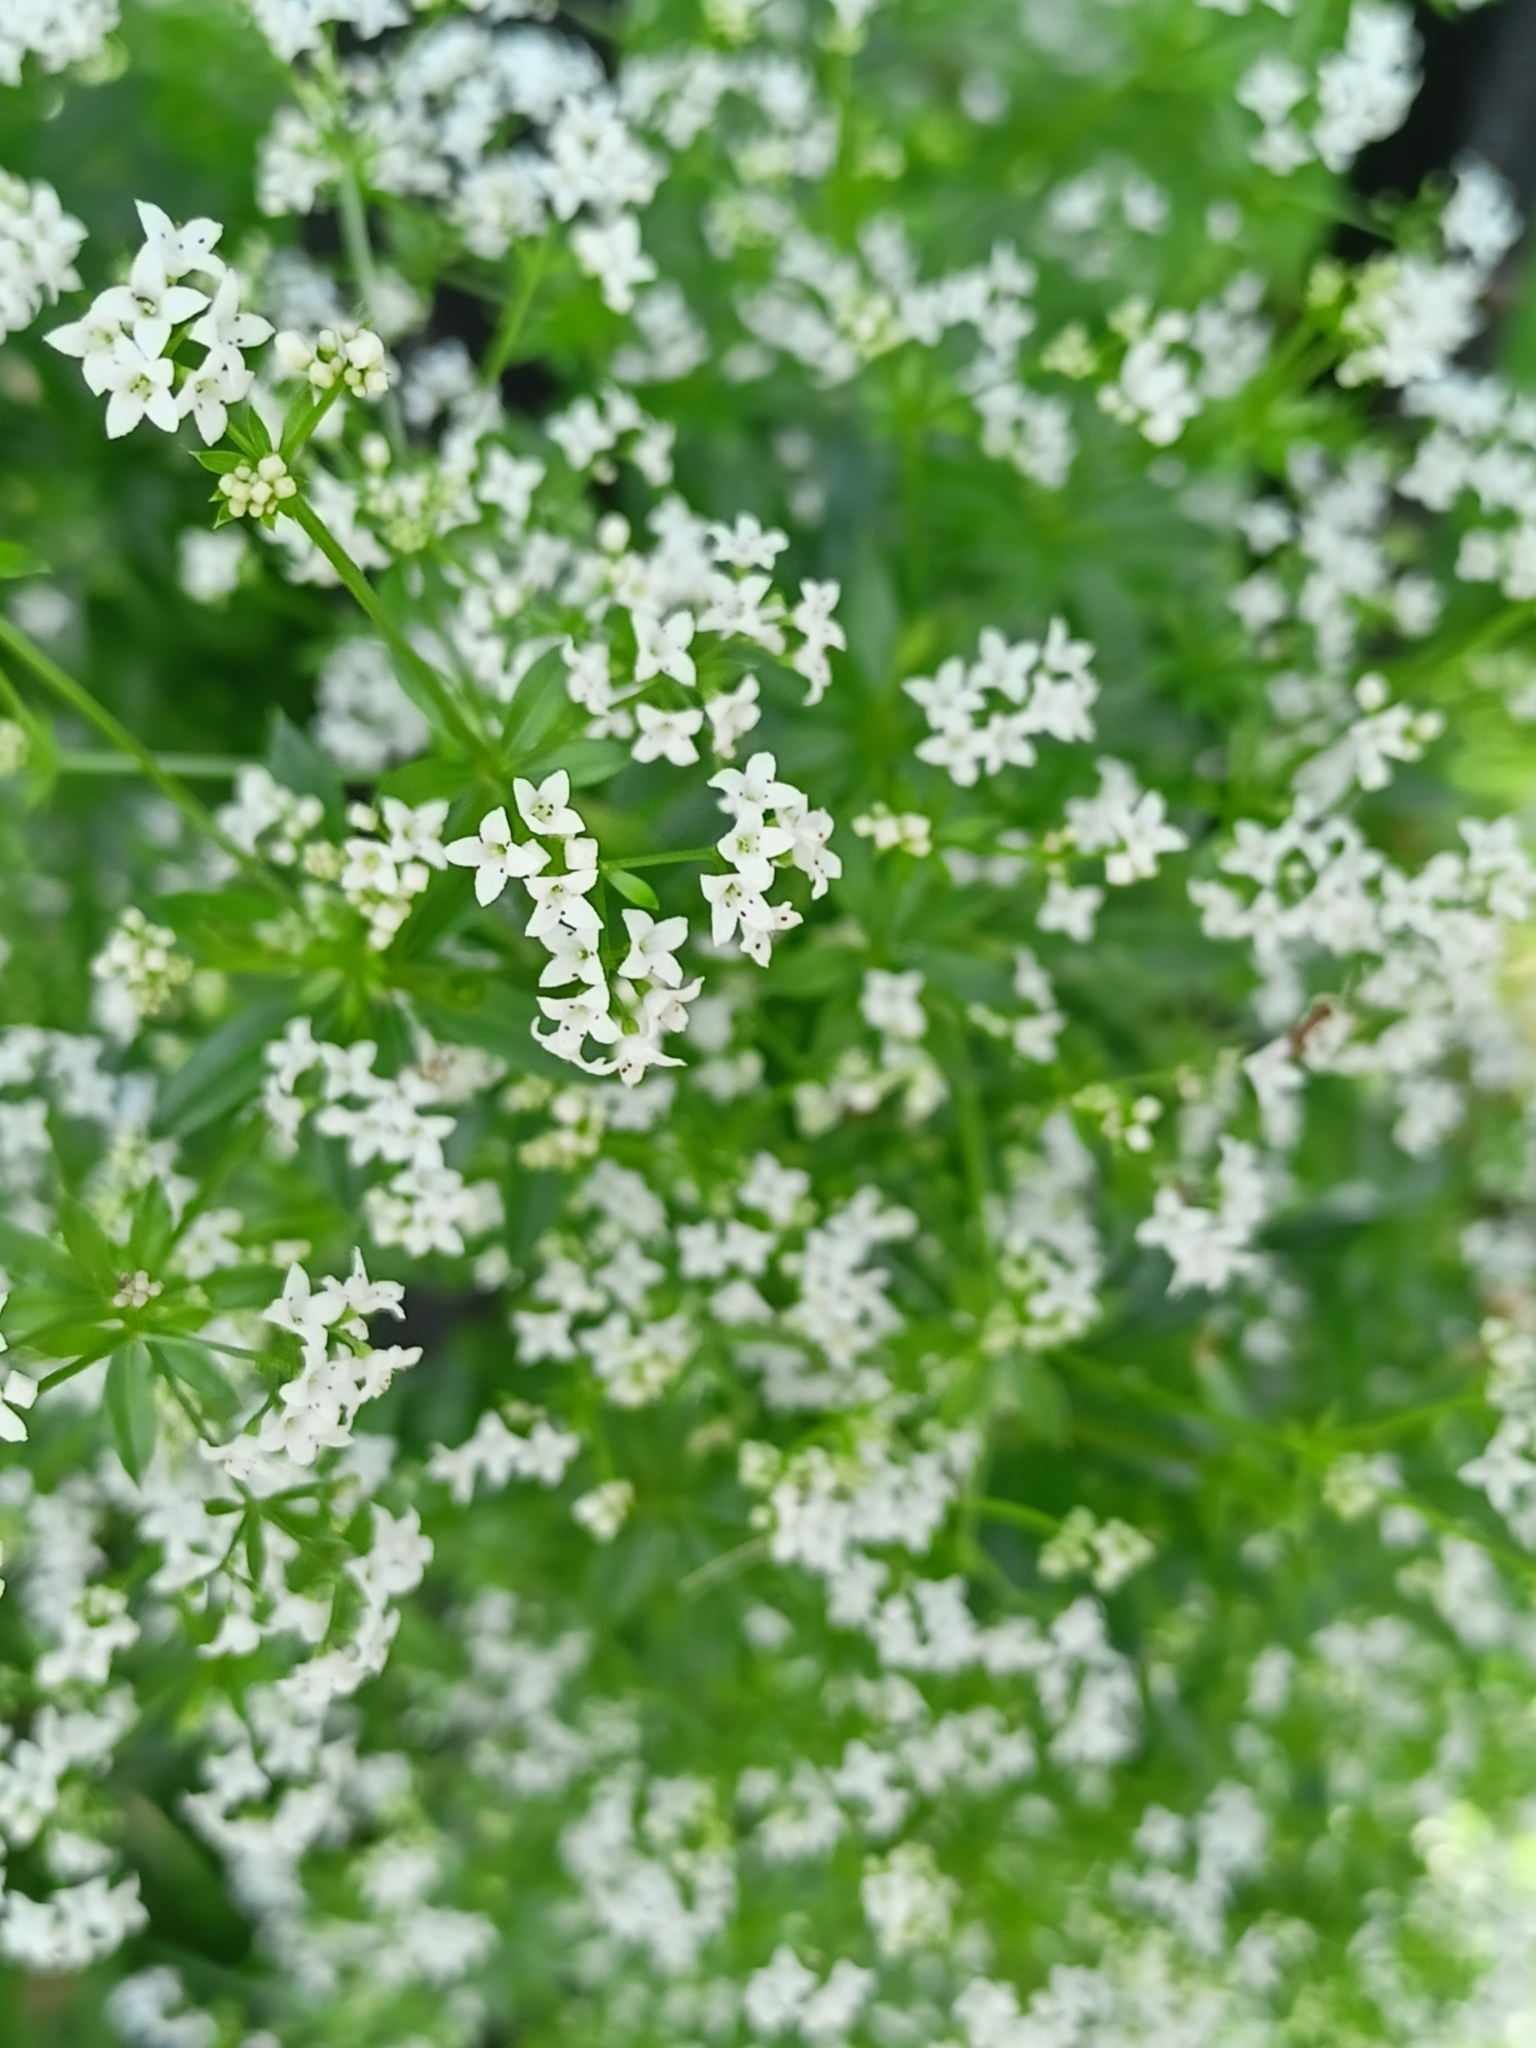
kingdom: Plantae
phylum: Tracheophyta
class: Magnoliopsida
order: Gentianales
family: Rubiaceae
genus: Galium
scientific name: Galium rivale
